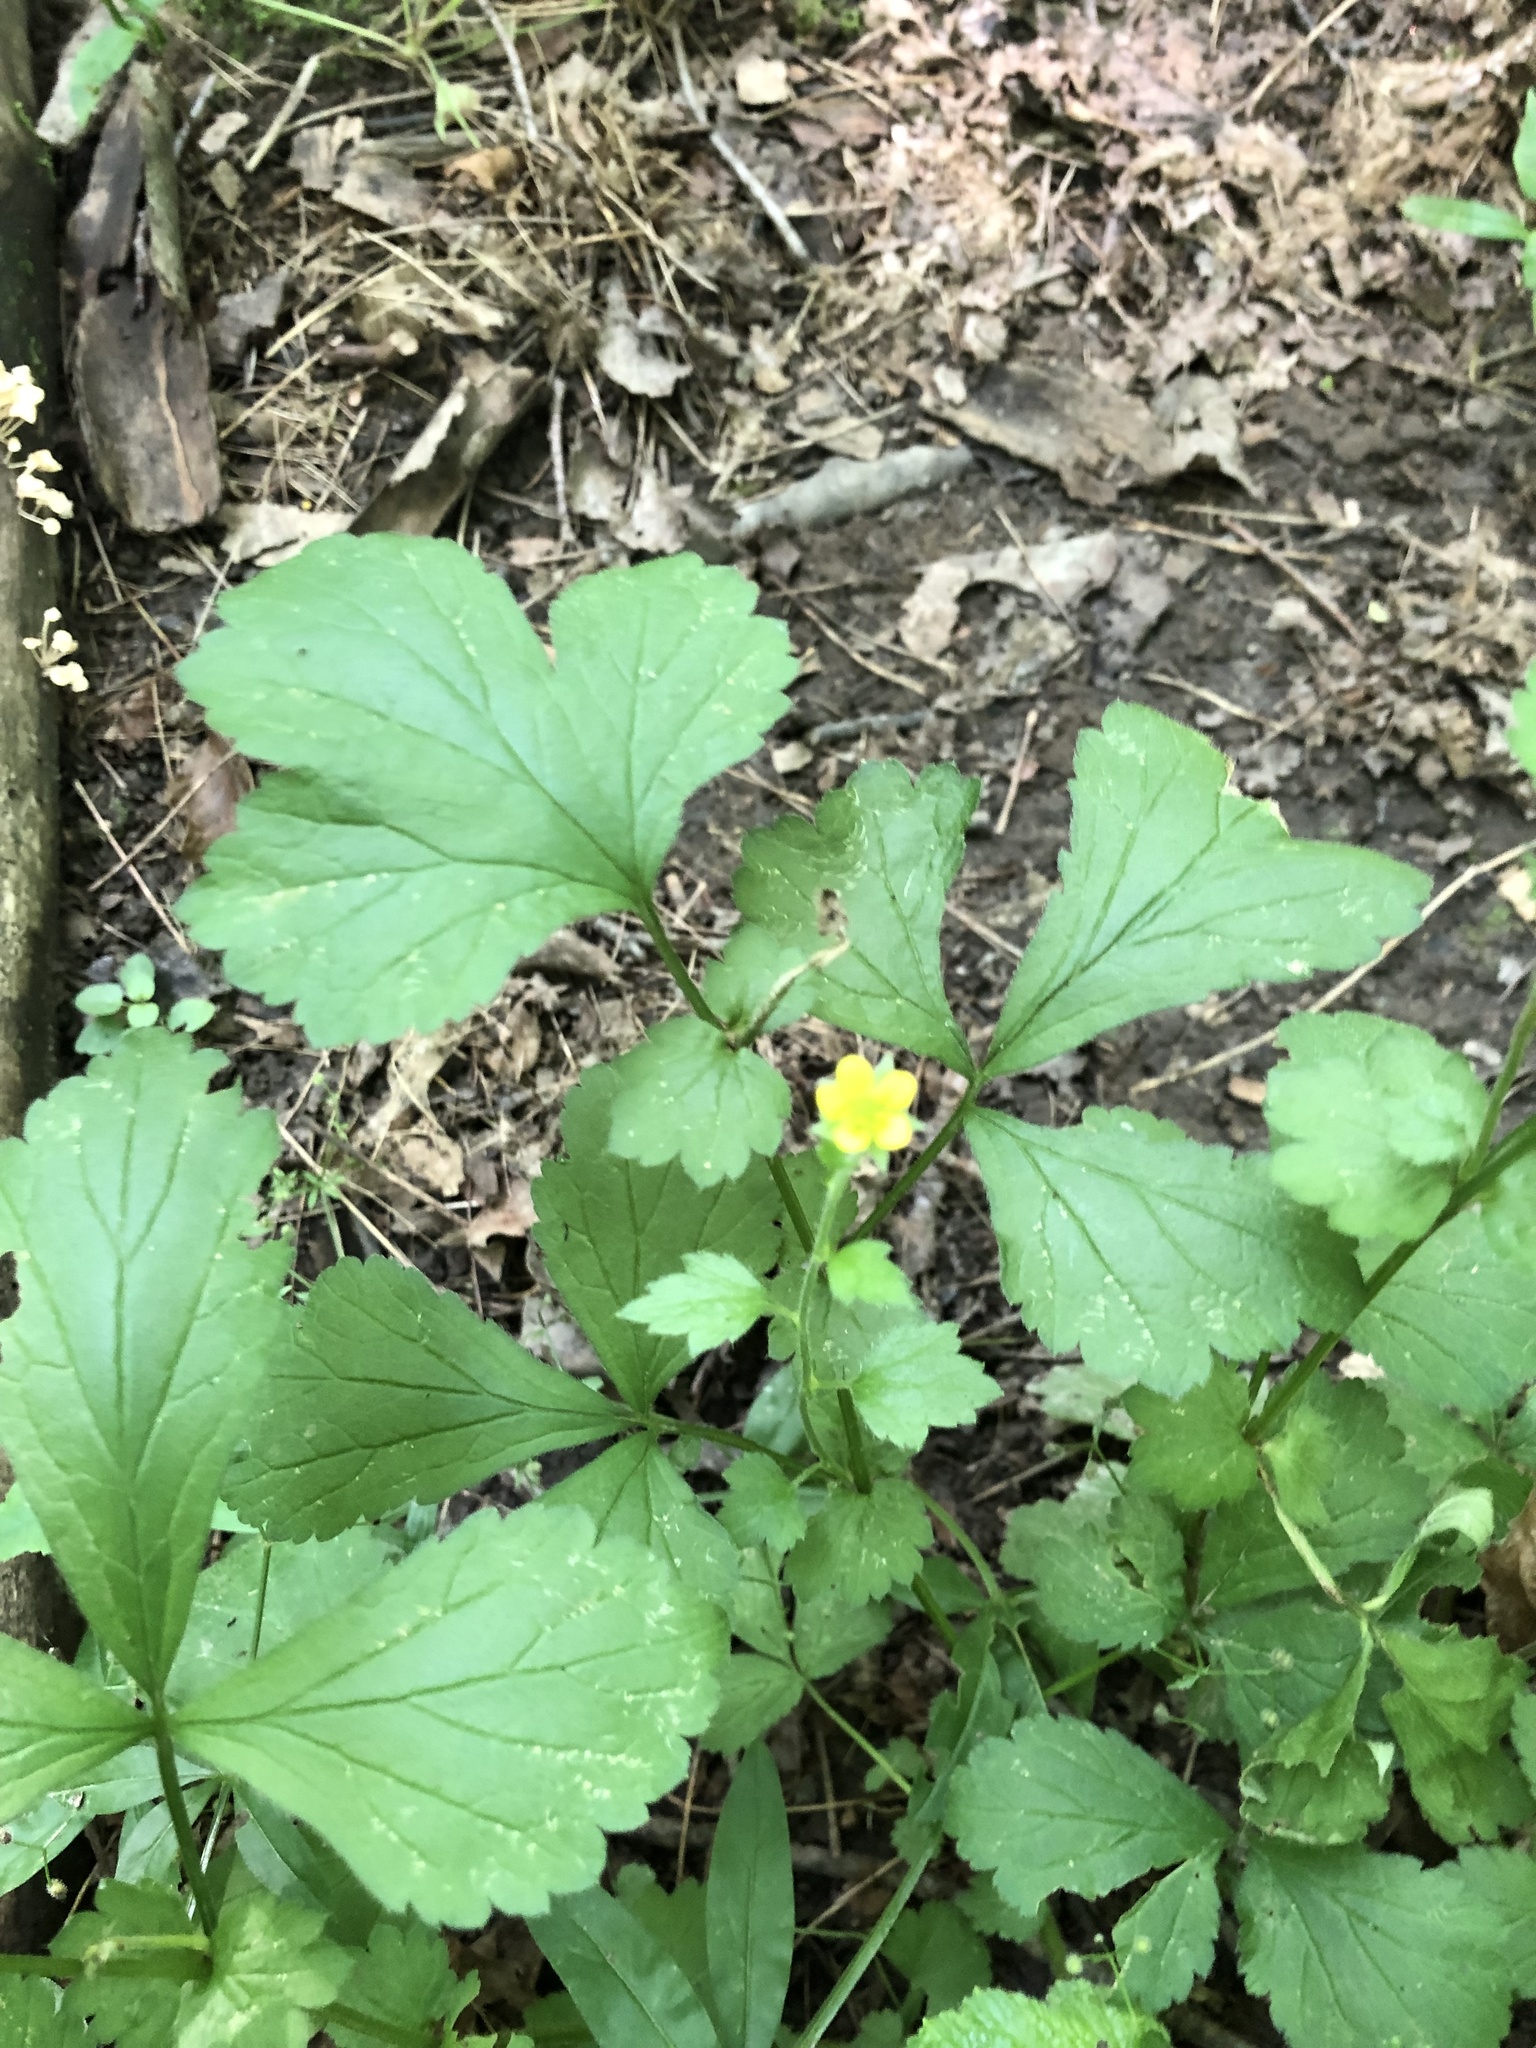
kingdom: Plantae
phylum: Tracheophyta
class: Magnoliopsida
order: Rosales
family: Rosaceae
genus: Geum
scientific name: Geum urbanum
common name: Wood avens
